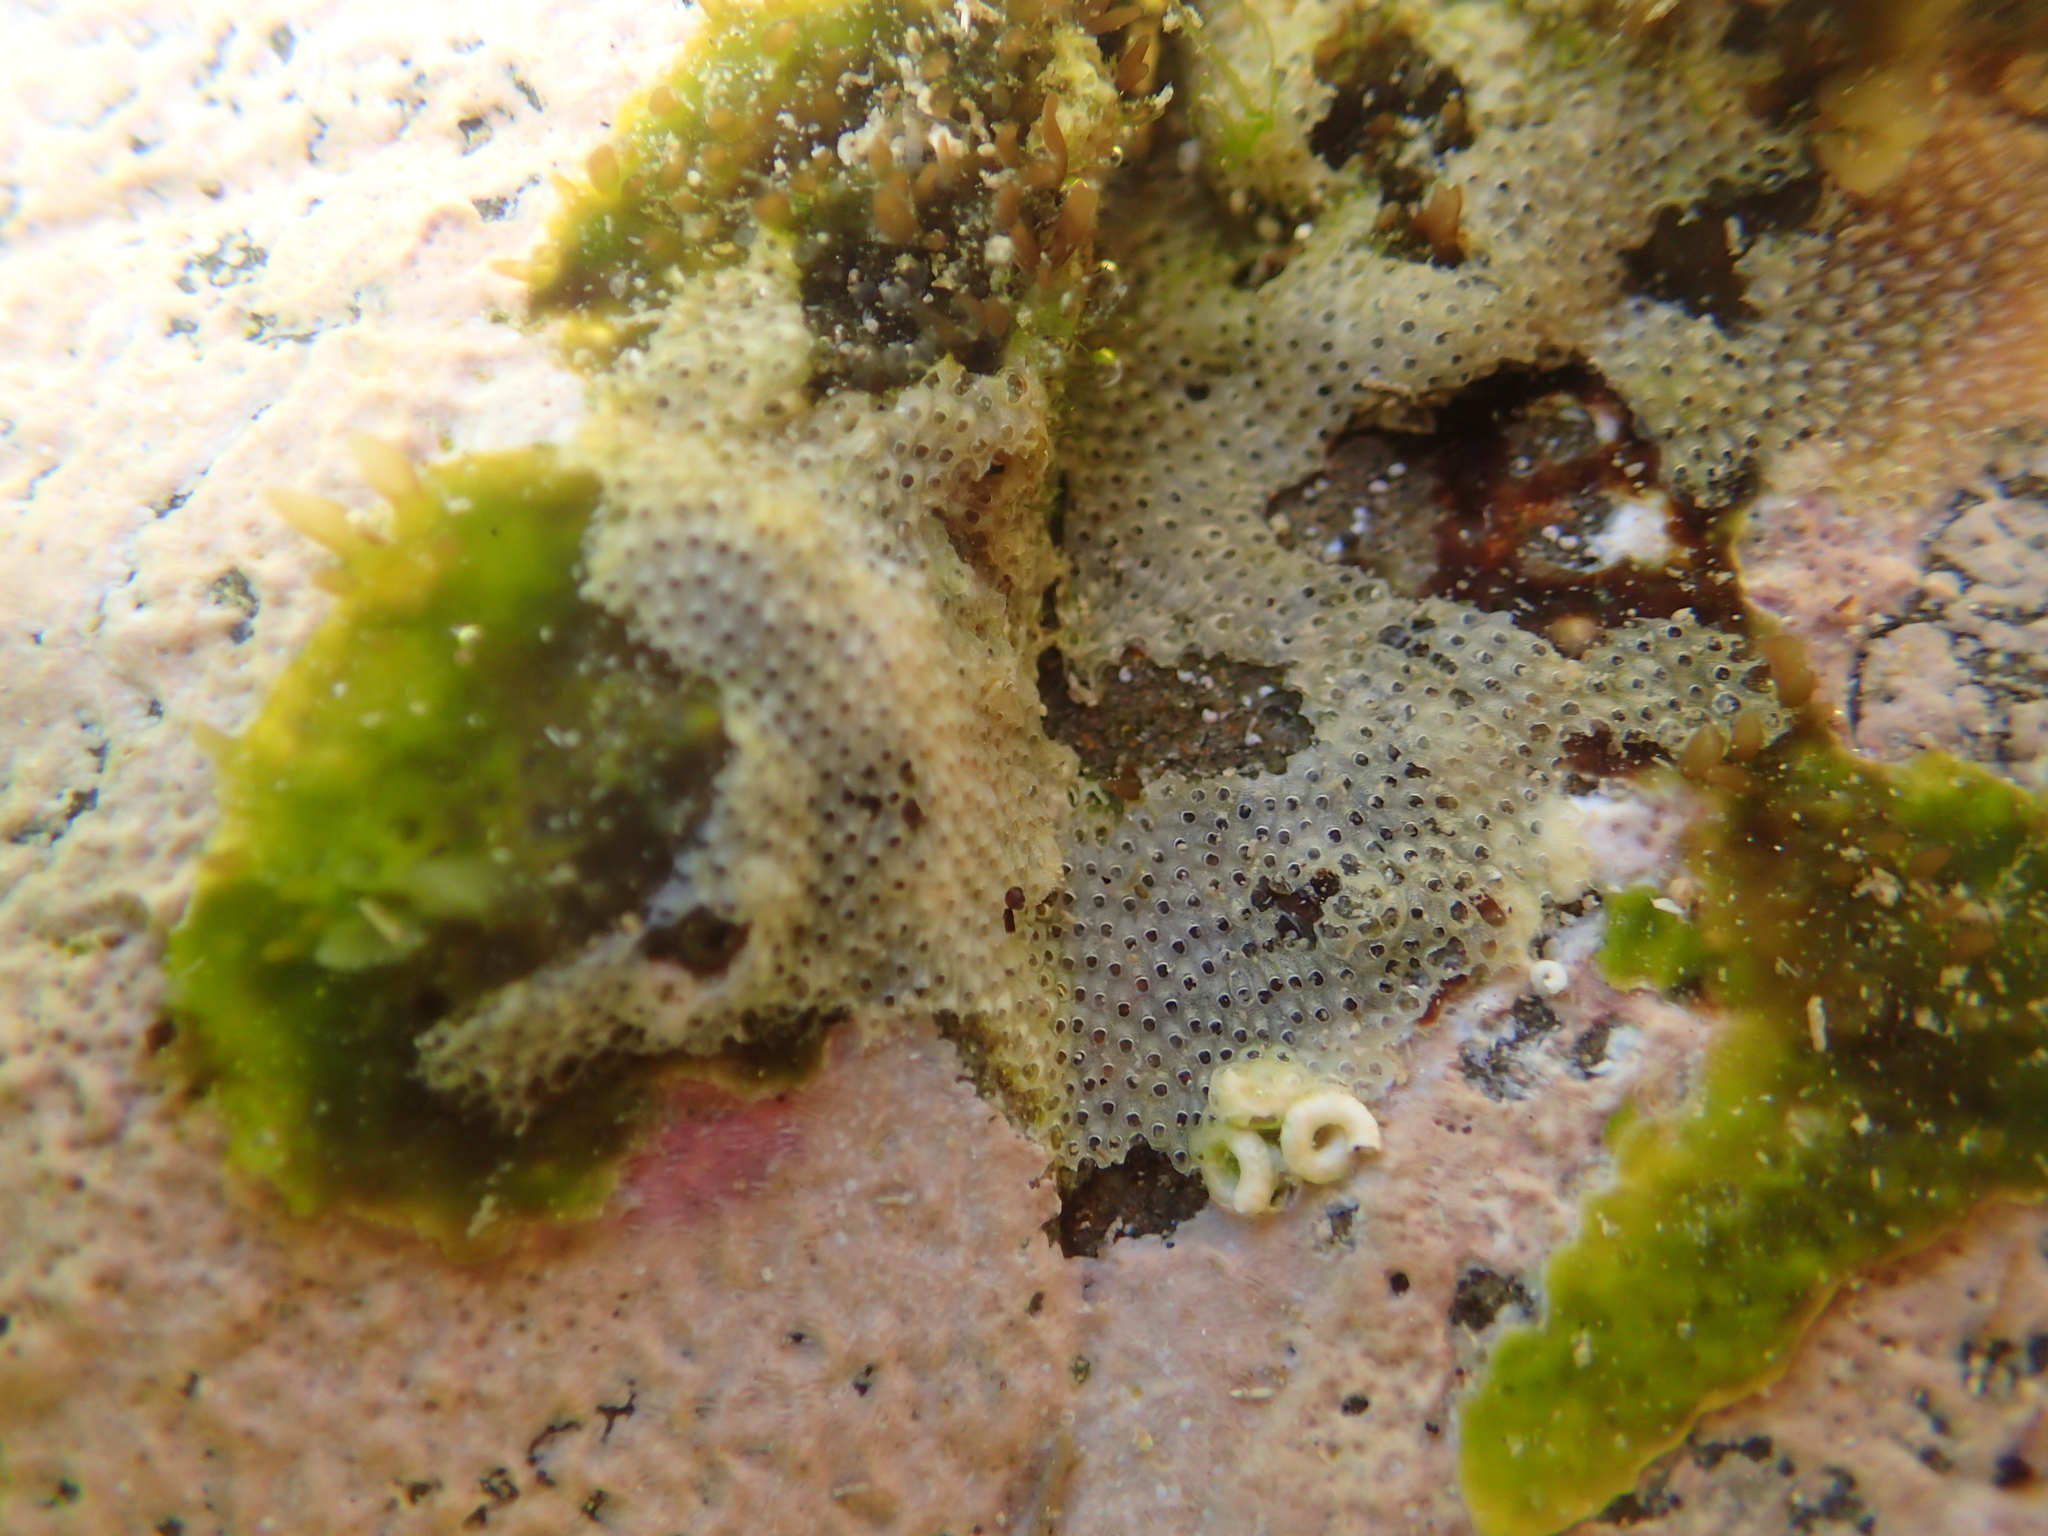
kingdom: Animalia
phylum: Bryozoa
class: Gymnolaemata
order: Cheilostomatida
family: Cryptosulidae
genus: Cryptosula
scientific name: Cryptosula pallasiana
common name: Red crust
